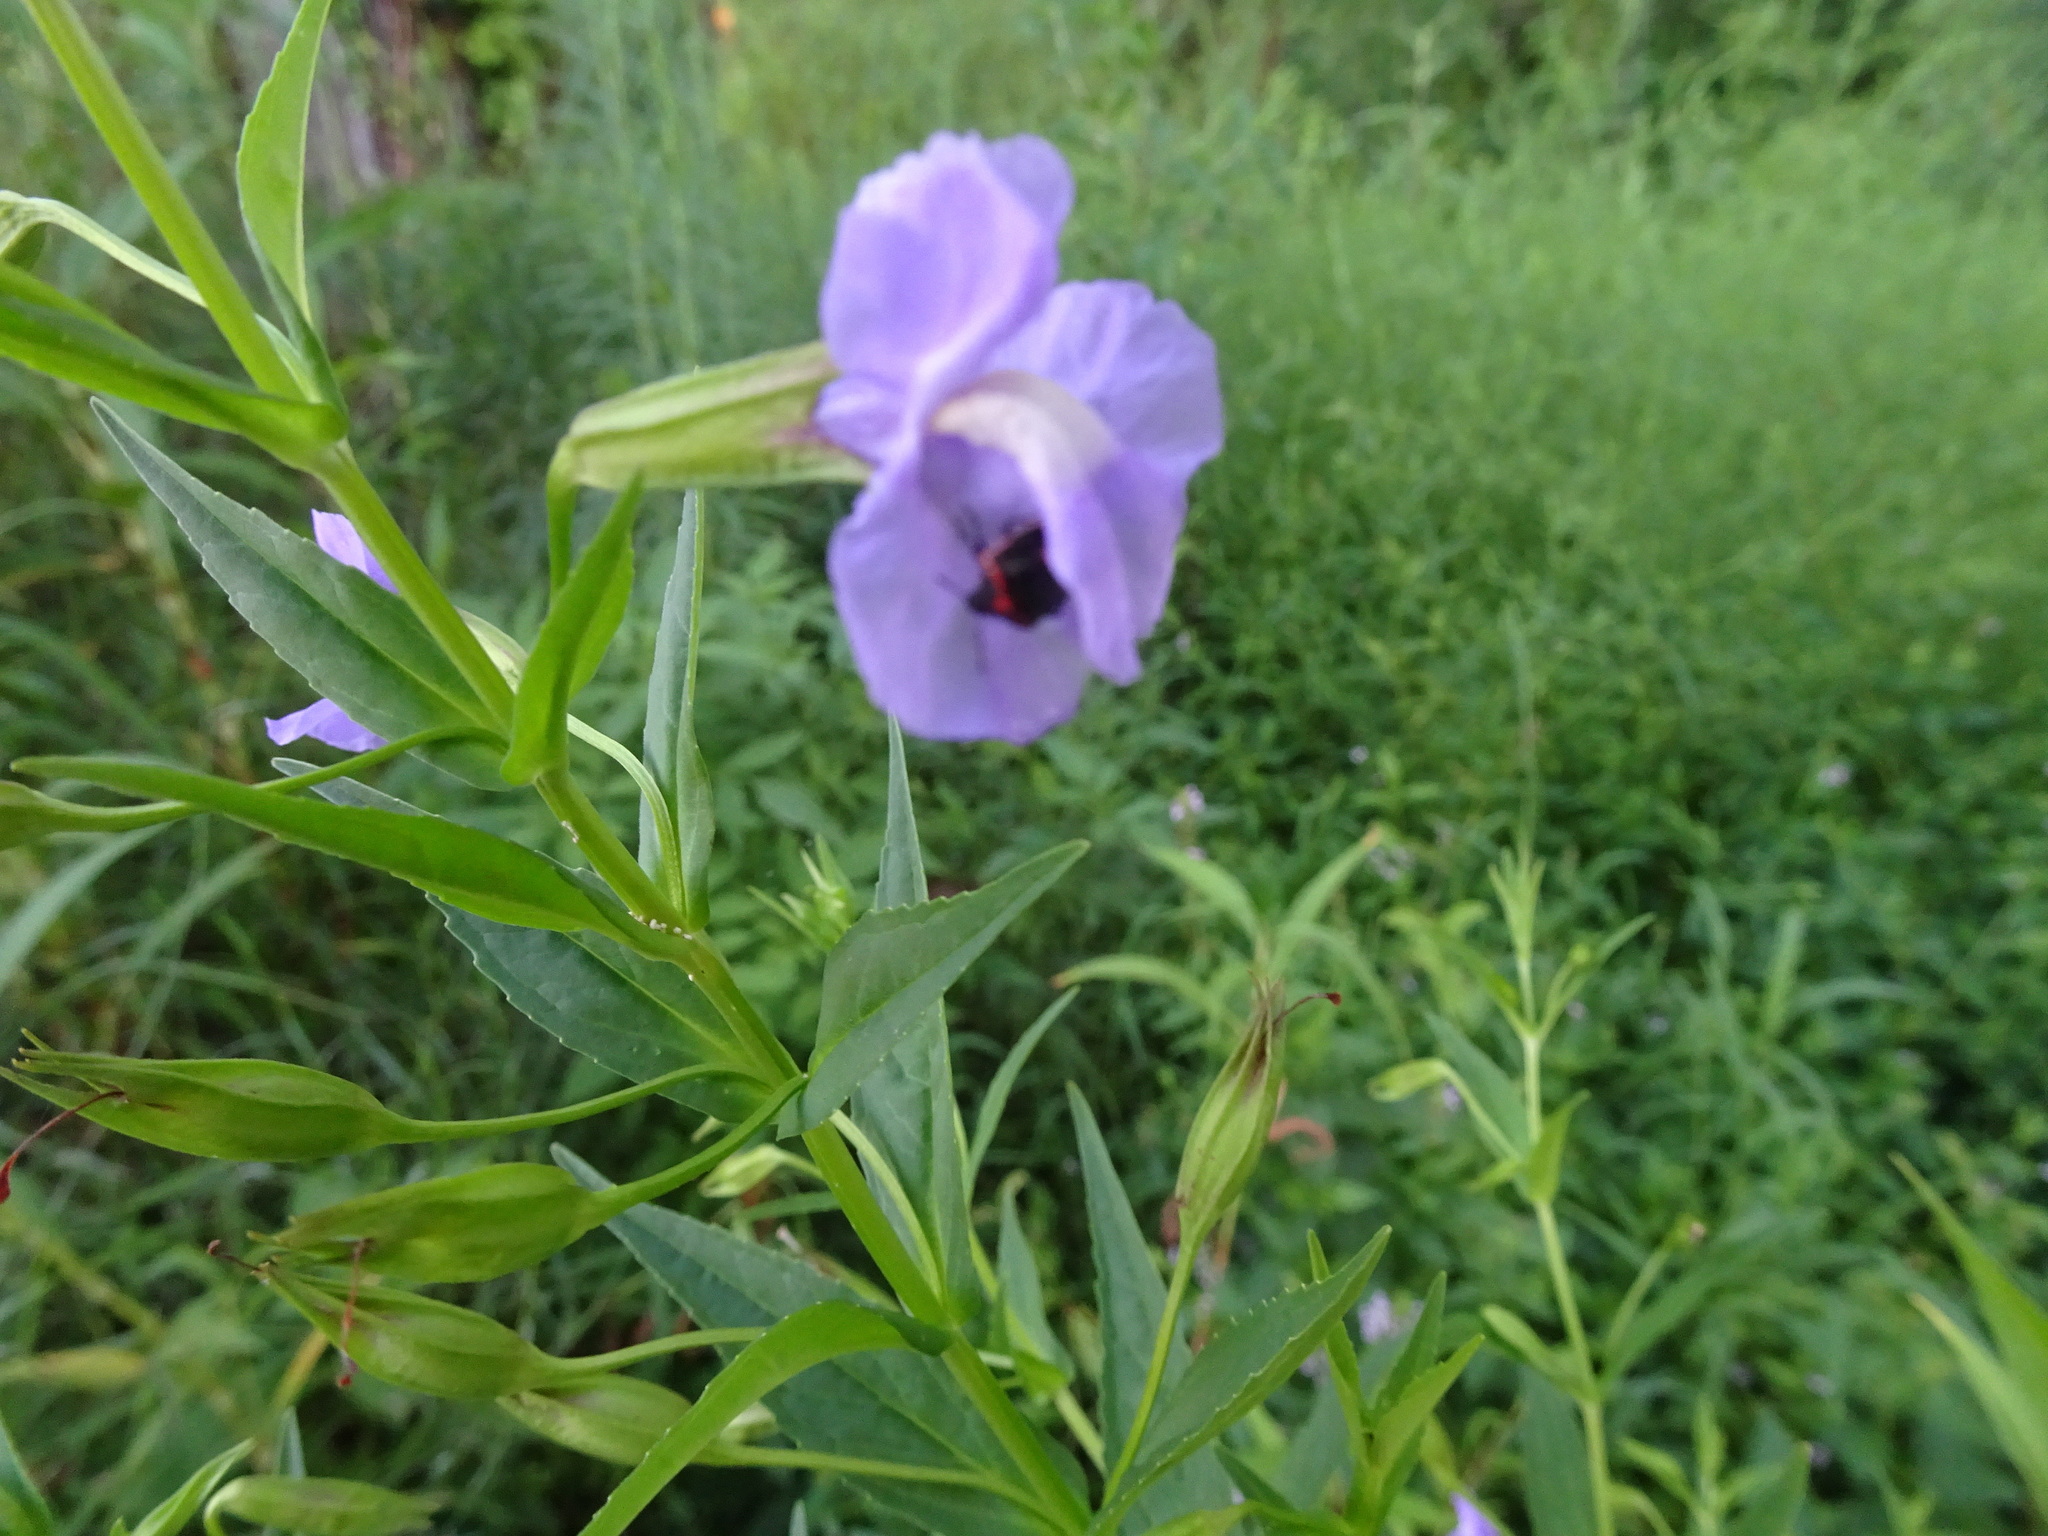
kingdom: Plantae
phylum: Tracheophyta
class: Magnoliopsida
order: Lamiales
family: Phrymaceae
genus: Mimulus
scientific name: Mimulus ringens
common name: Allegheny monkeyflower
